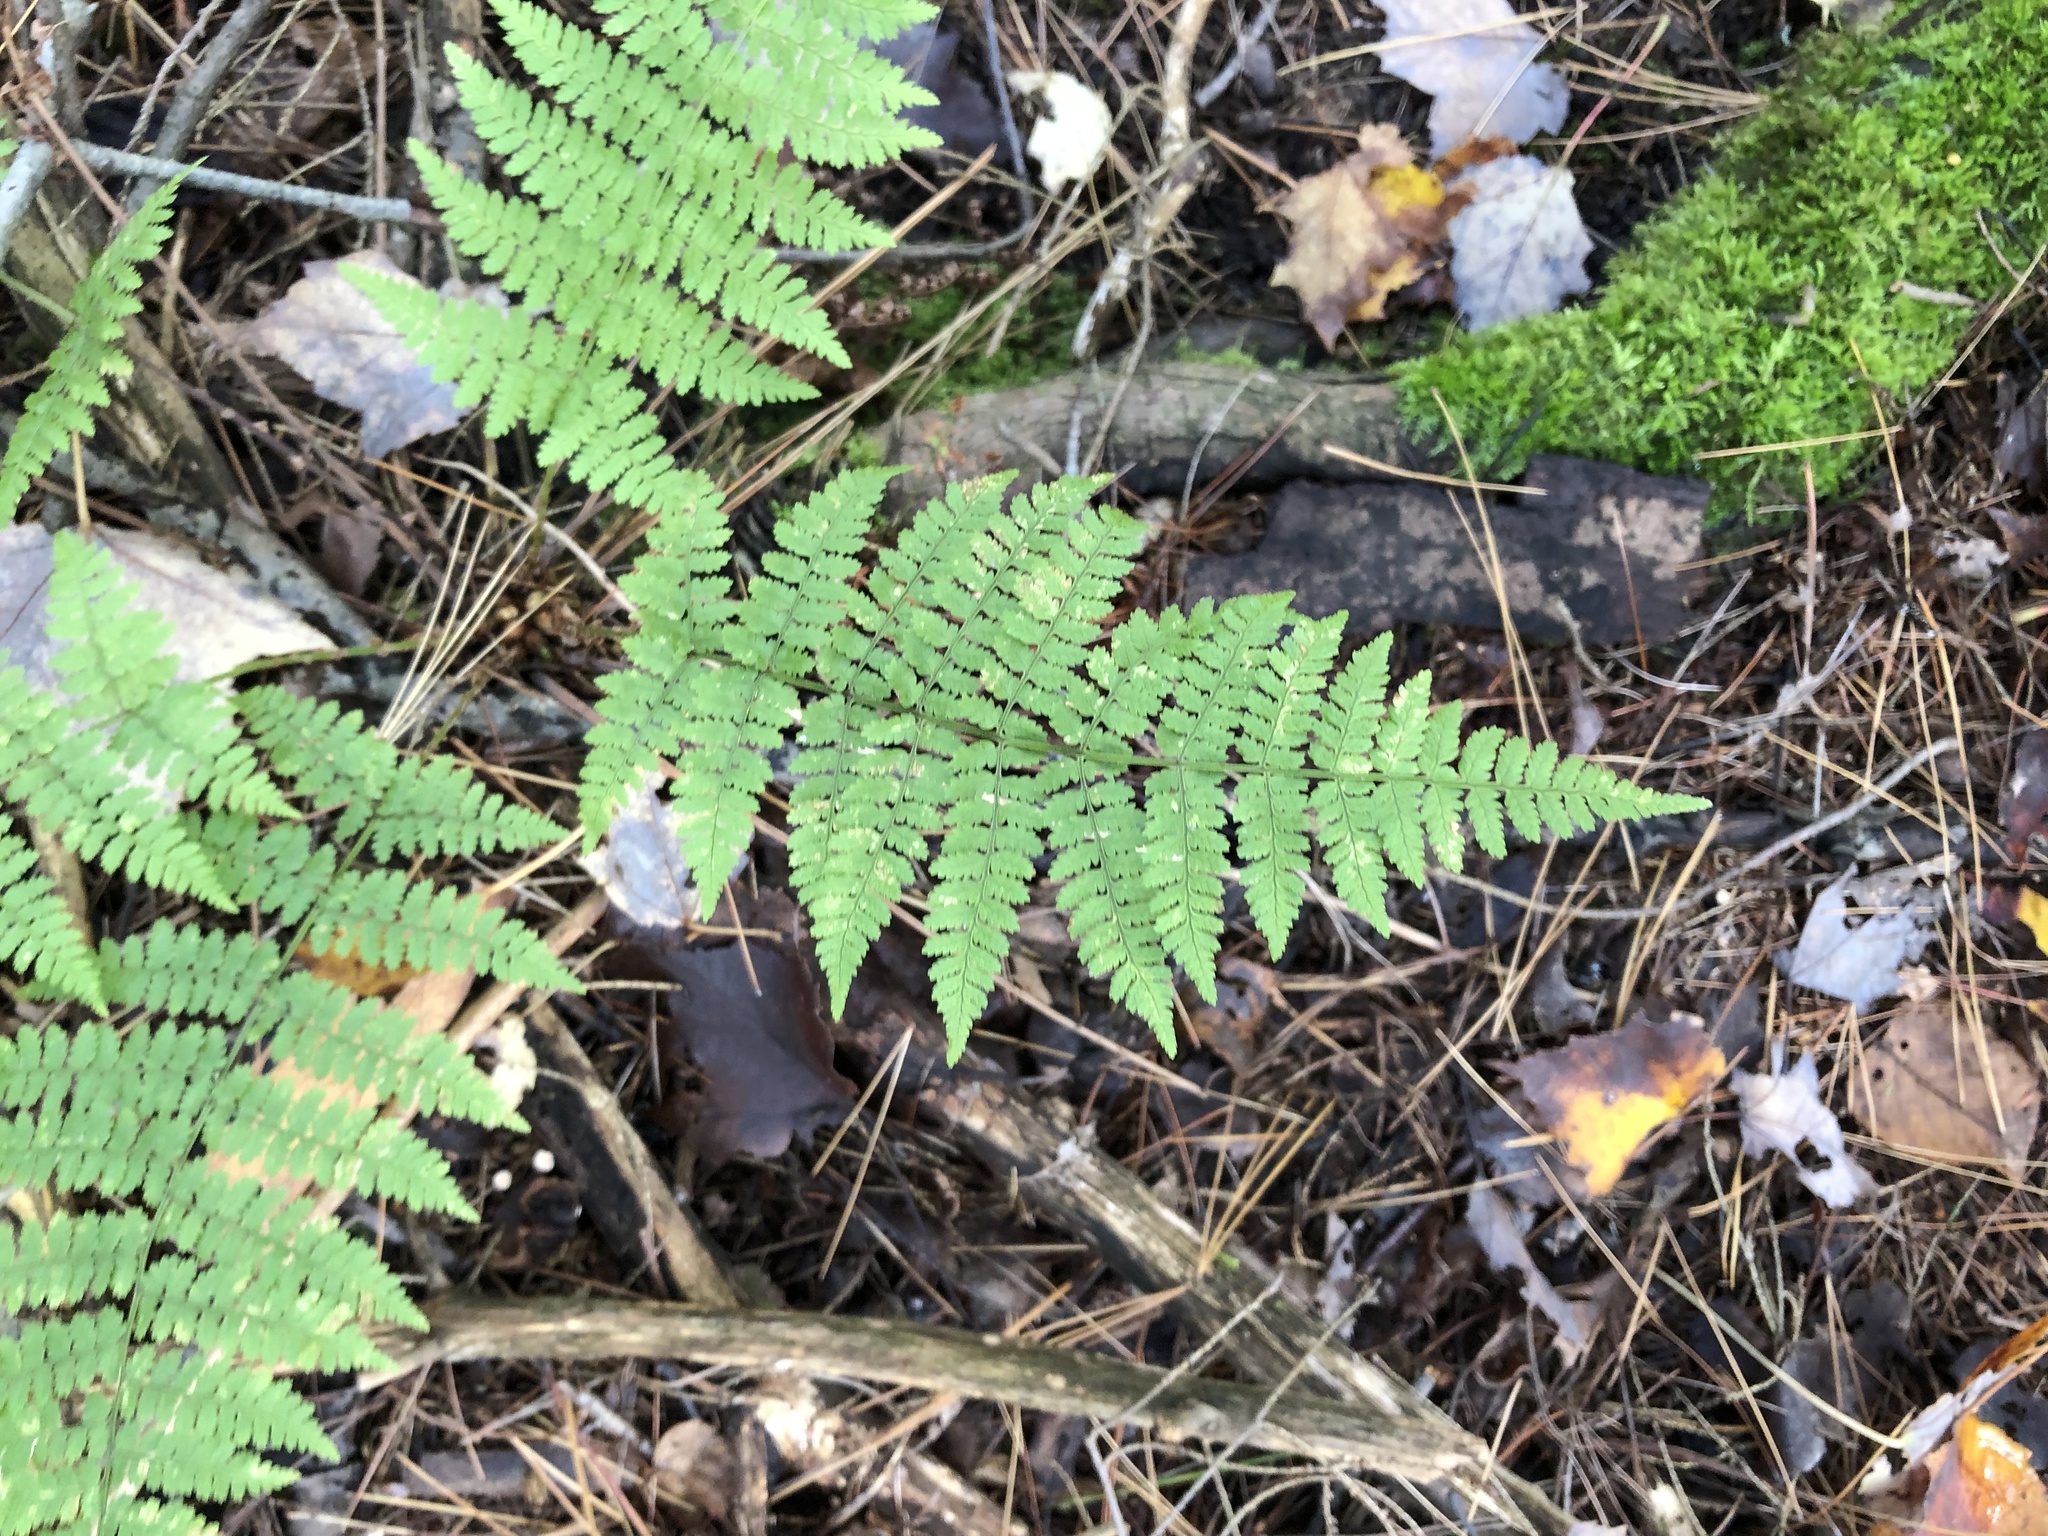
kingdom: Plantae
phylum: Tracheophyta
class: Polypodiopsida
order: Polypodiales
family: Dryopteridaceae
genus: Dryopteris
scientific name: Dryopteris intermedia
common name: Evergreen wood fern
